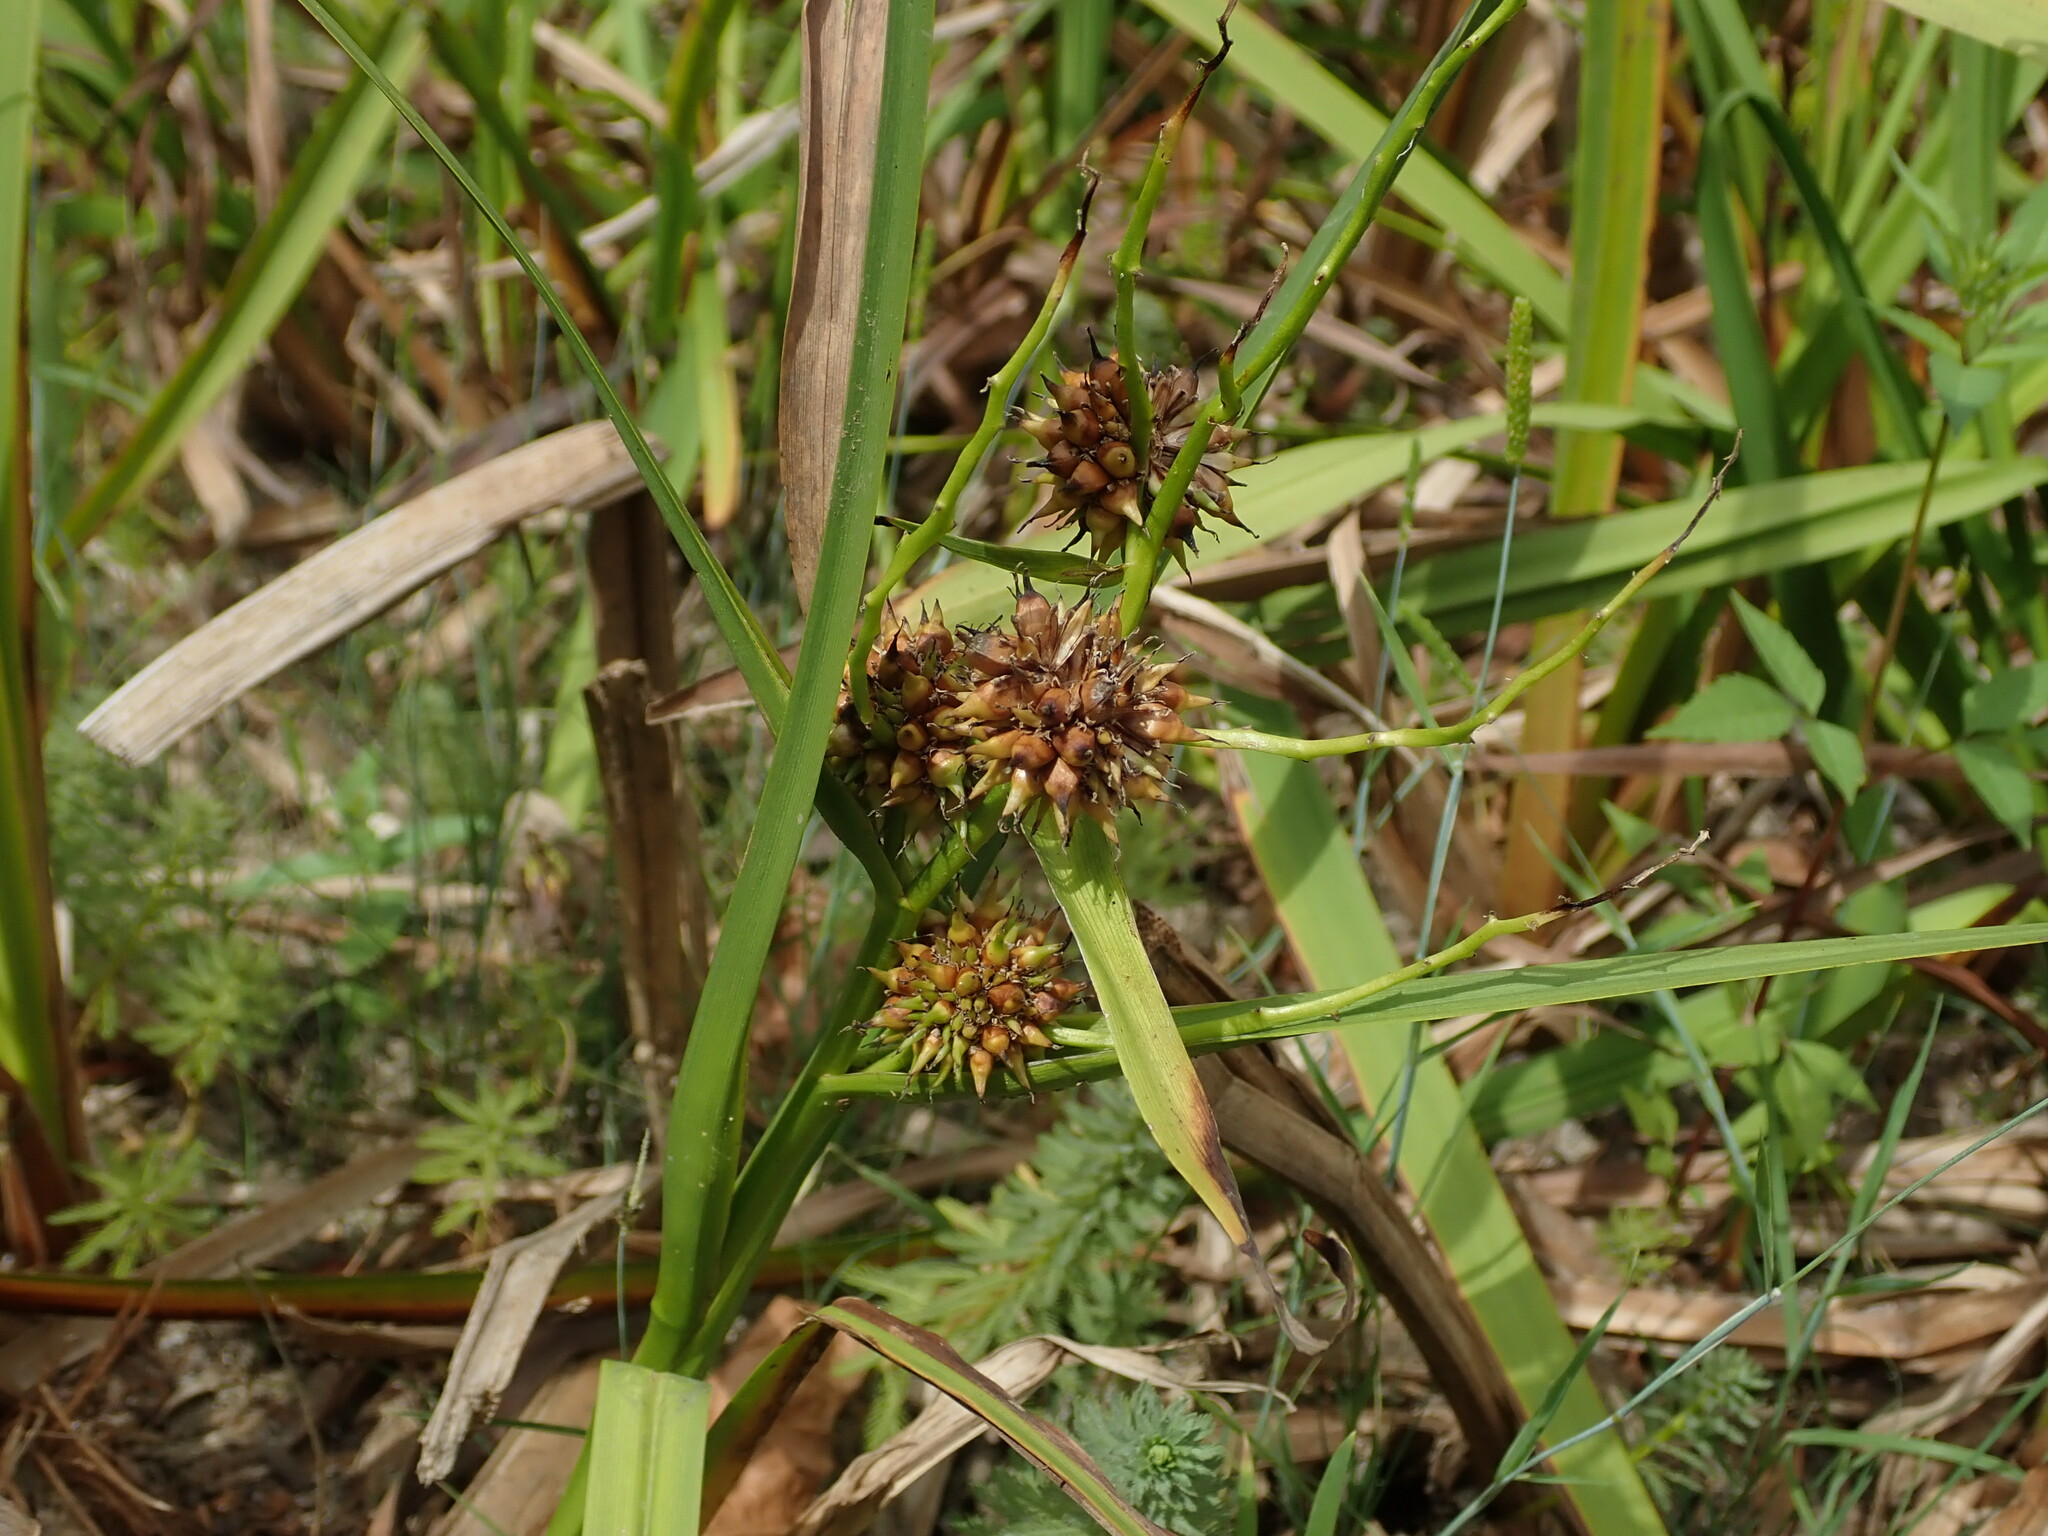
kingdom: Plantae
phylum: Tracheophyta
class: Liliopsida
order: Poales
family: Typhaceae
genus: Sparganium
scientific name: Sparganium erectum
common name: Branched bur-reed
